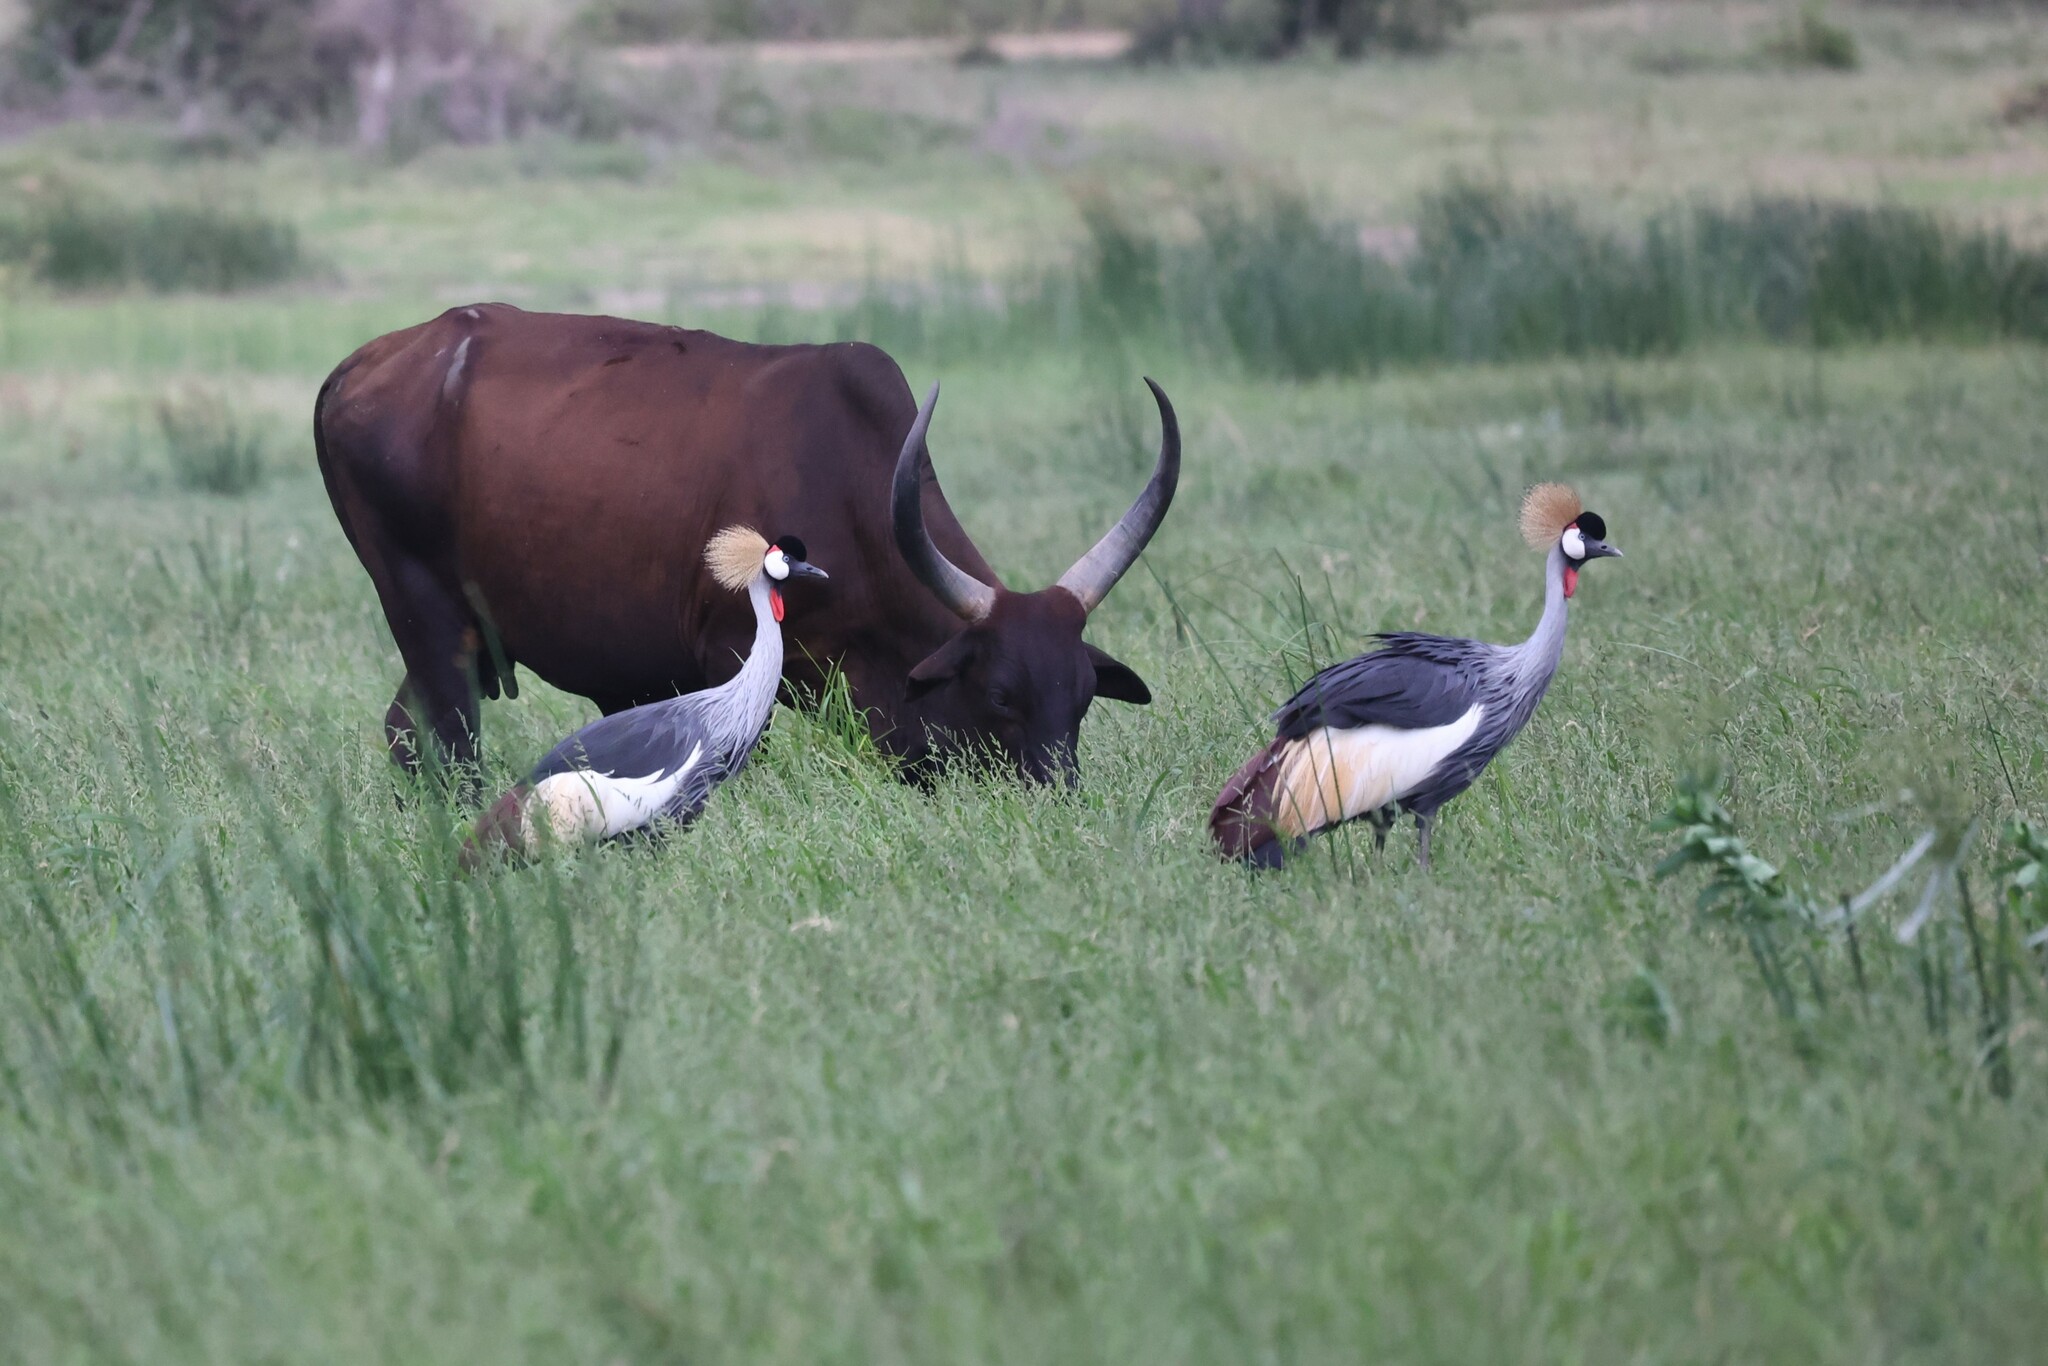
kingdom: Animalia
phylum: Chordata
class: Aves
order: Gruiformes
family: Gruidae
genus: Balearica
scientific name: Balearica regulorum
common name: Grey crowned crane
